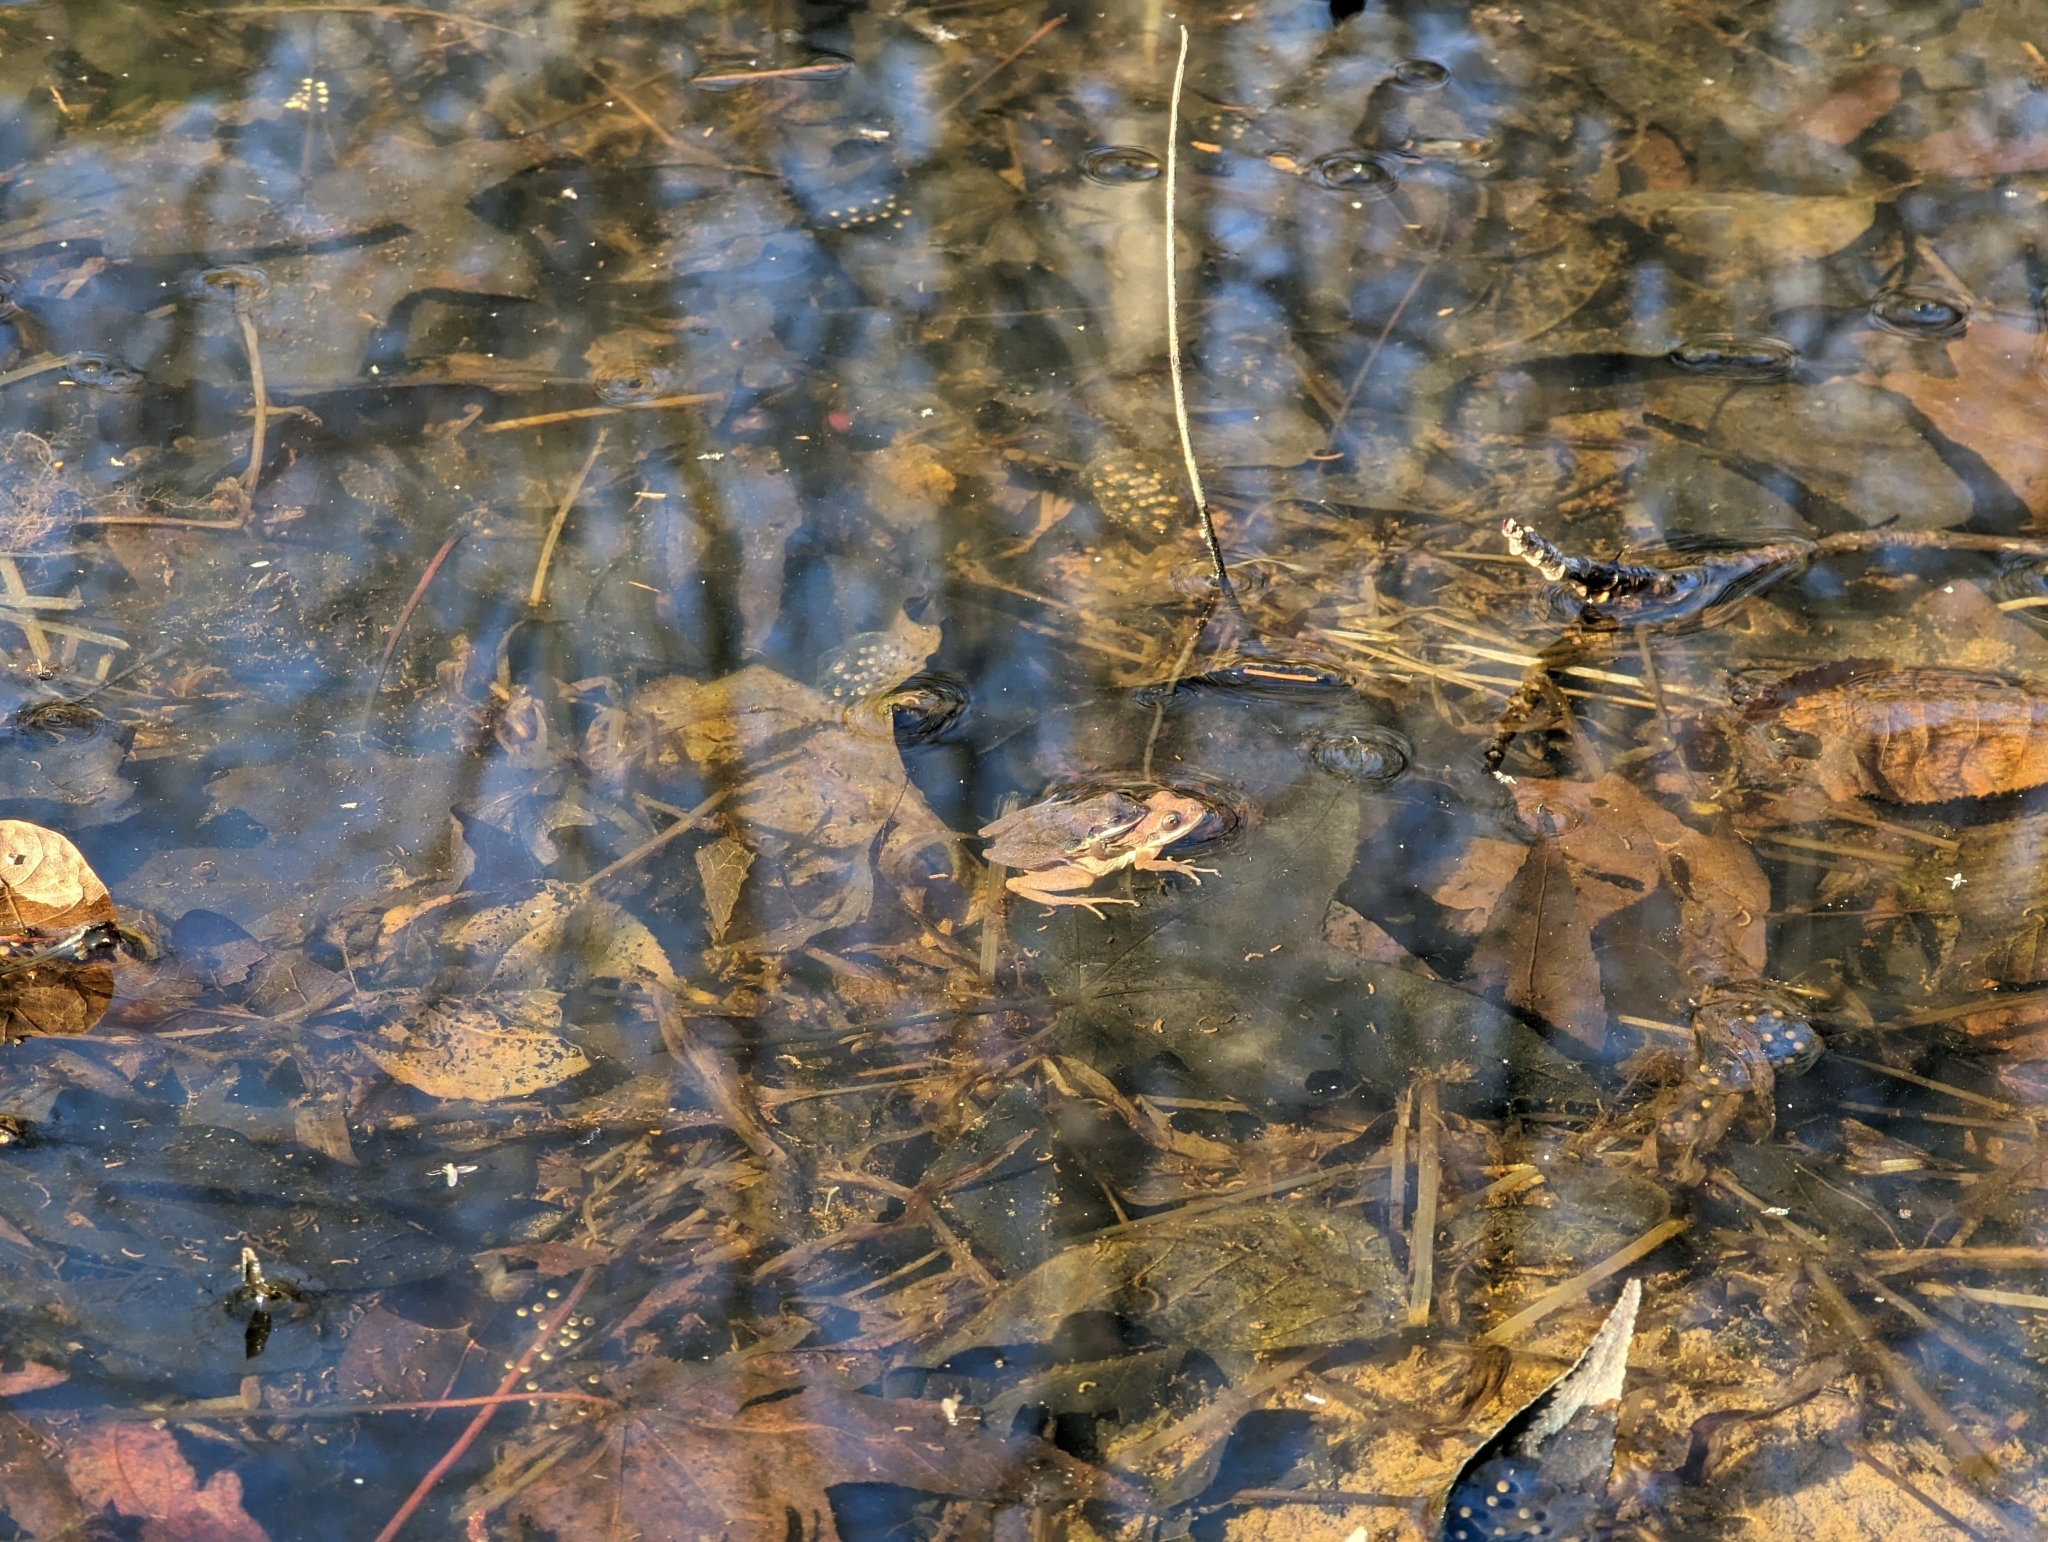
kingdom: Animalia
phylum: Chordata
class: Amphibia
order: Anura
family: Hylidae
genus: Pseudacris
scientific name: Pseudacris feriarum
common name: Upland chorus frog
